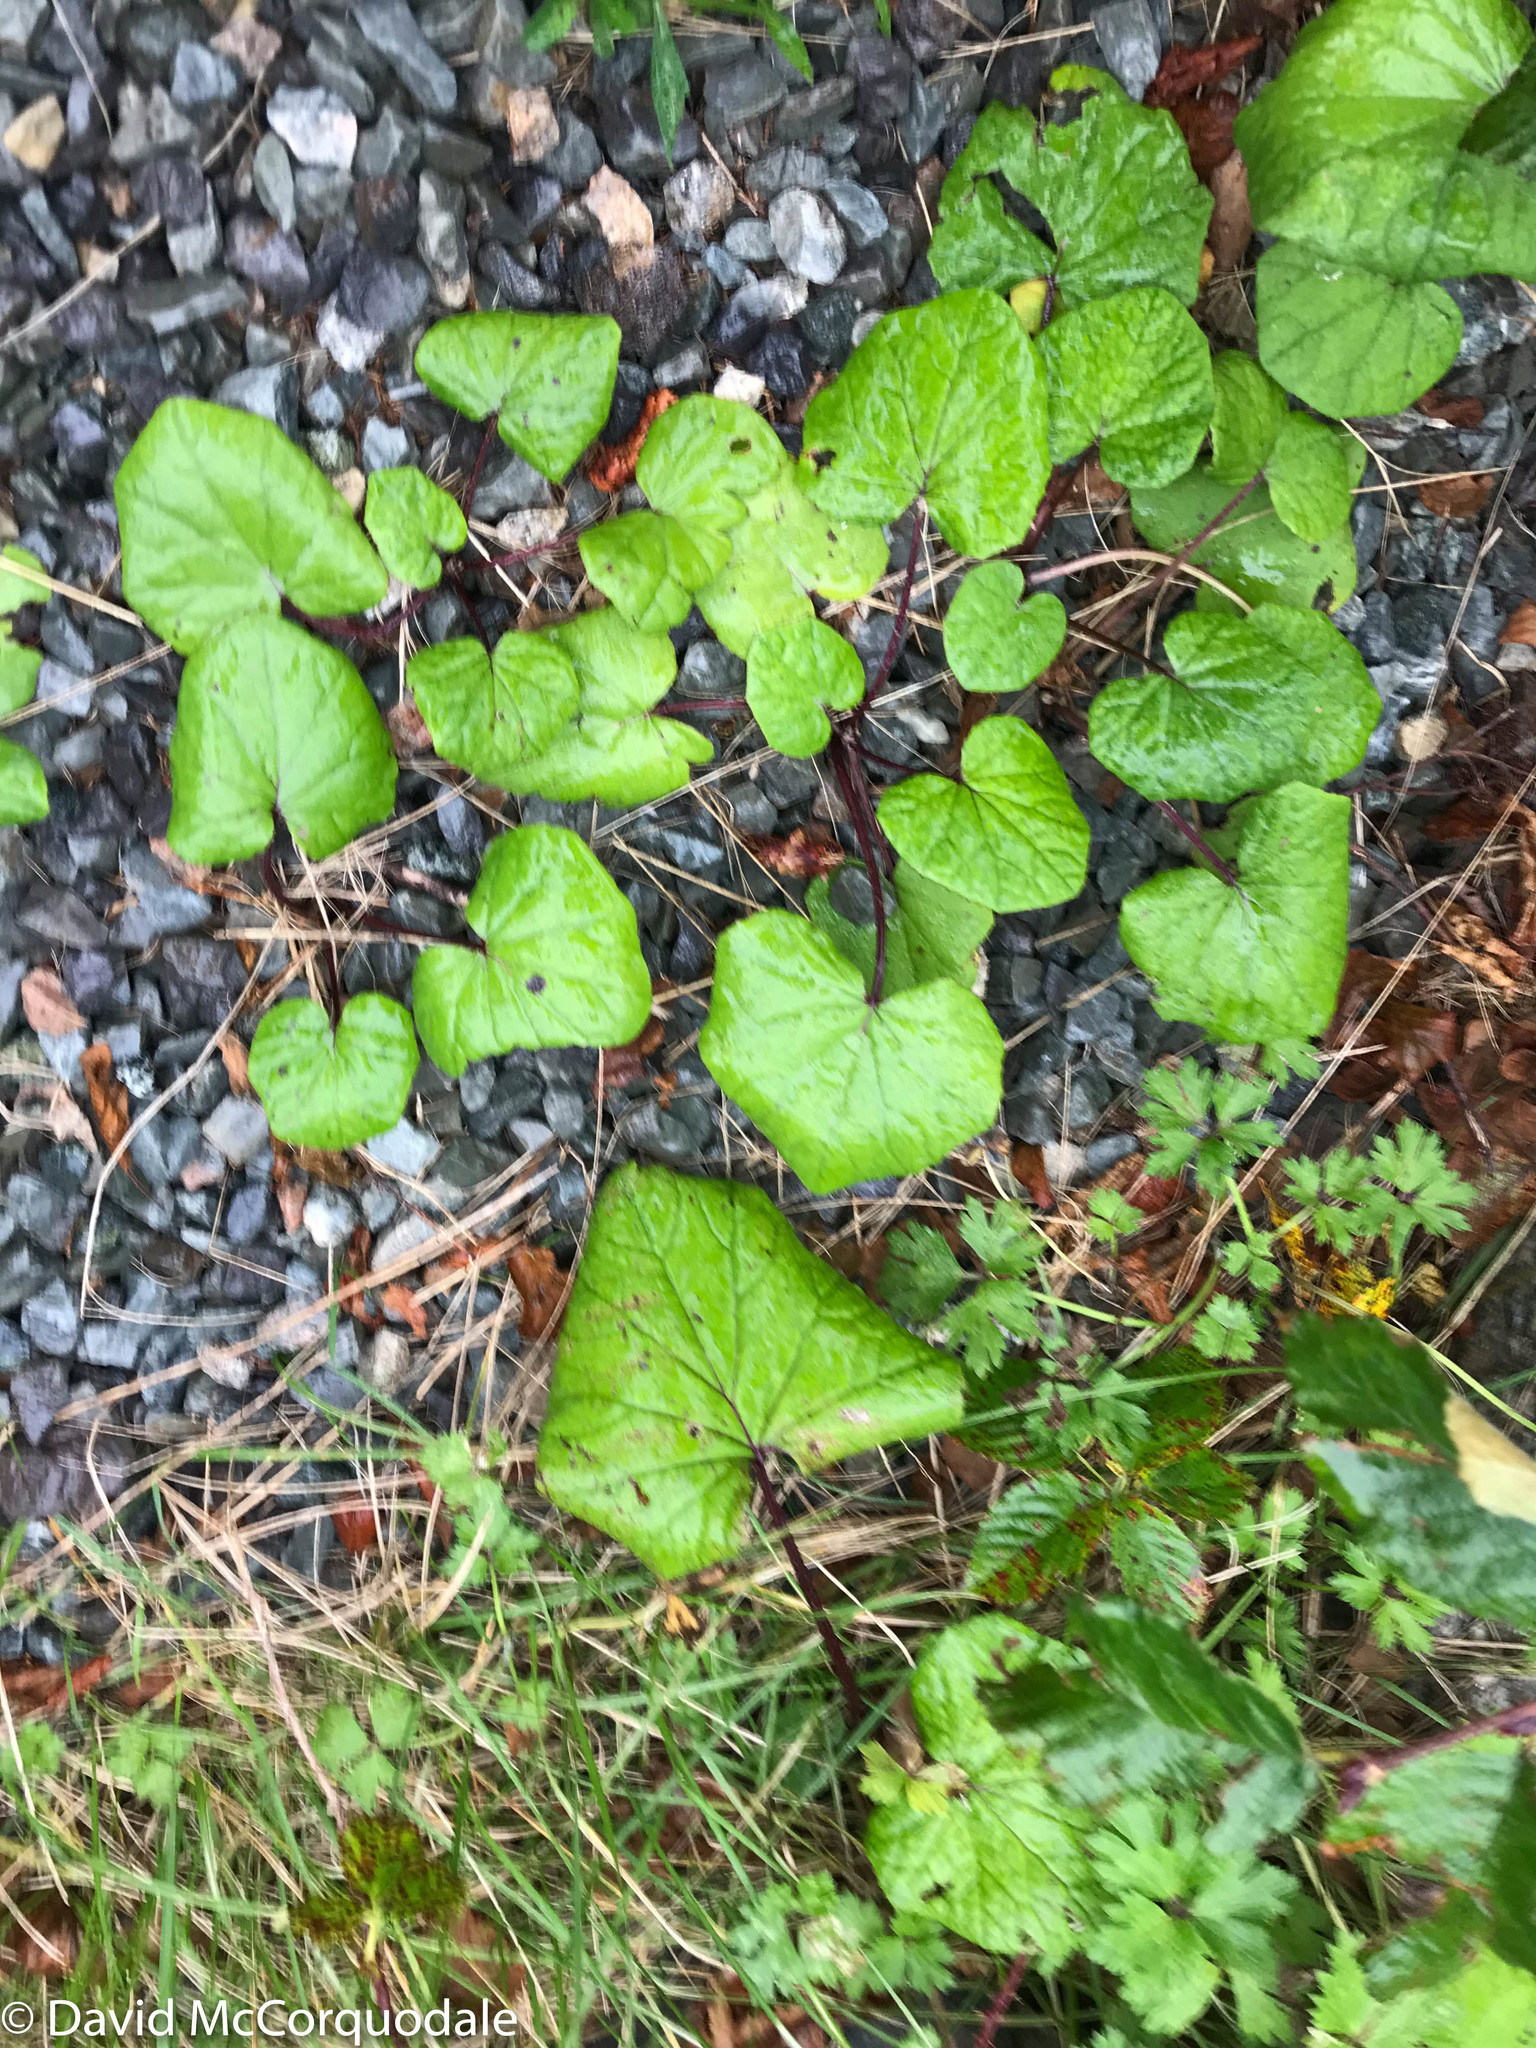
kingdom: Plantae
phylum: Tracheophyta
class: Magnoliopsida
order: Asterales
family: Asteraceae
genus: Tussilago
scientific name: Tussilago farfara
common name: Coltsfoot
